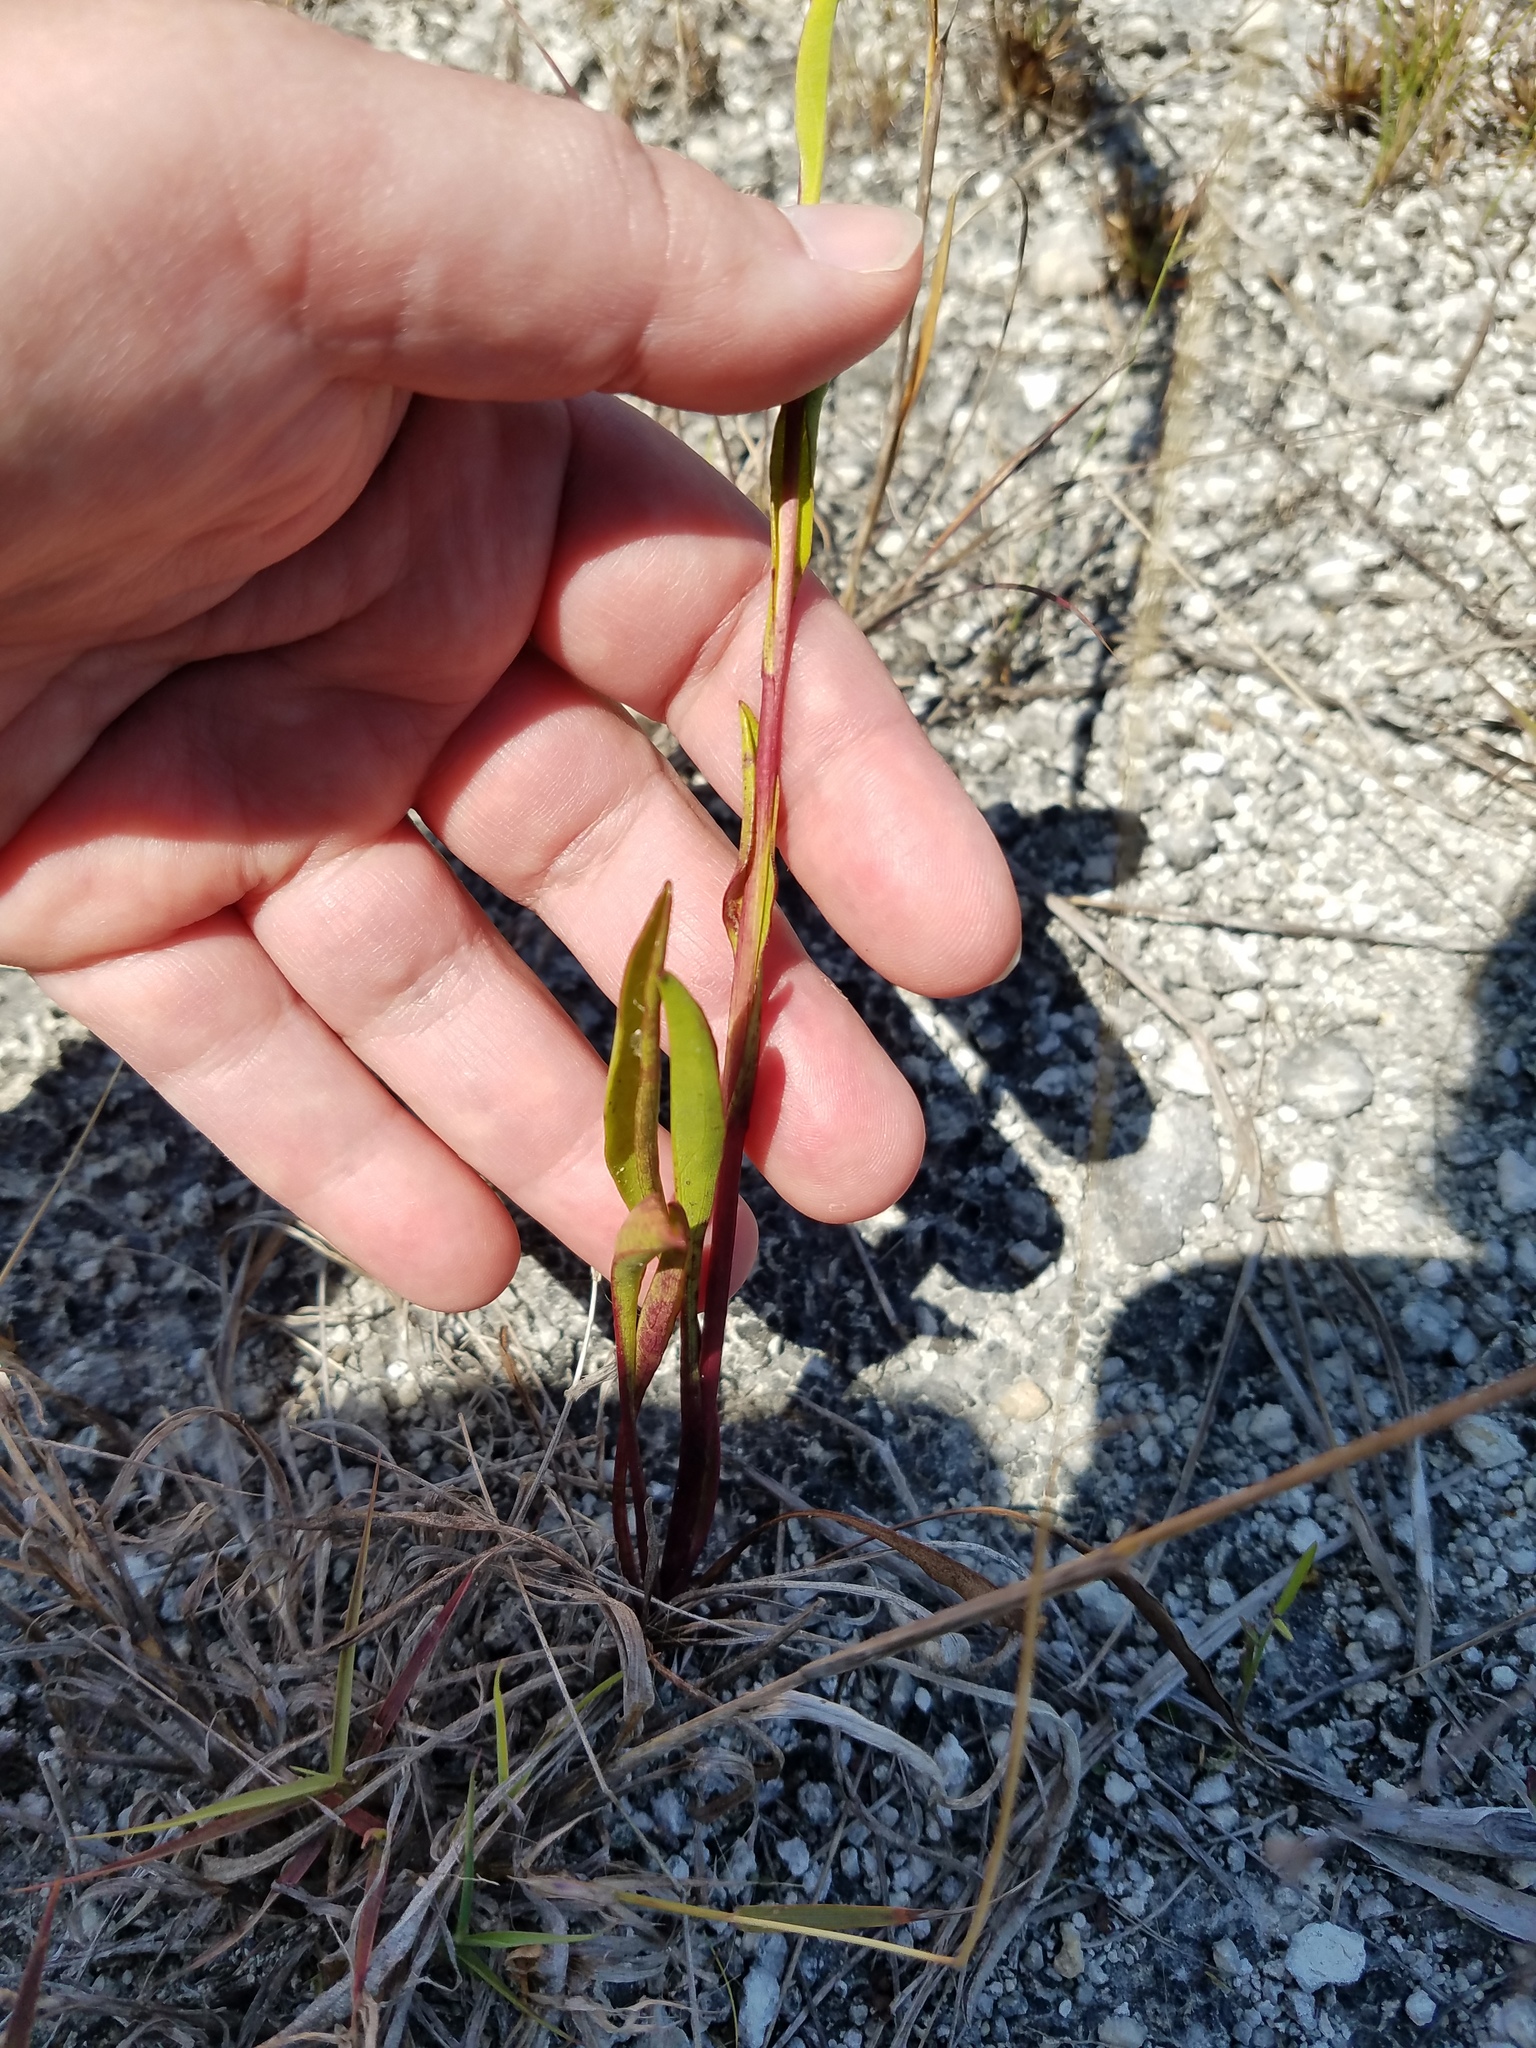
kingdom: Plantae
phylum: Tracheophyta
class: Magnoliopsida
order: Asterales
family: Asteraceae
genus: Solidago
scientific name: Solidago virgata
